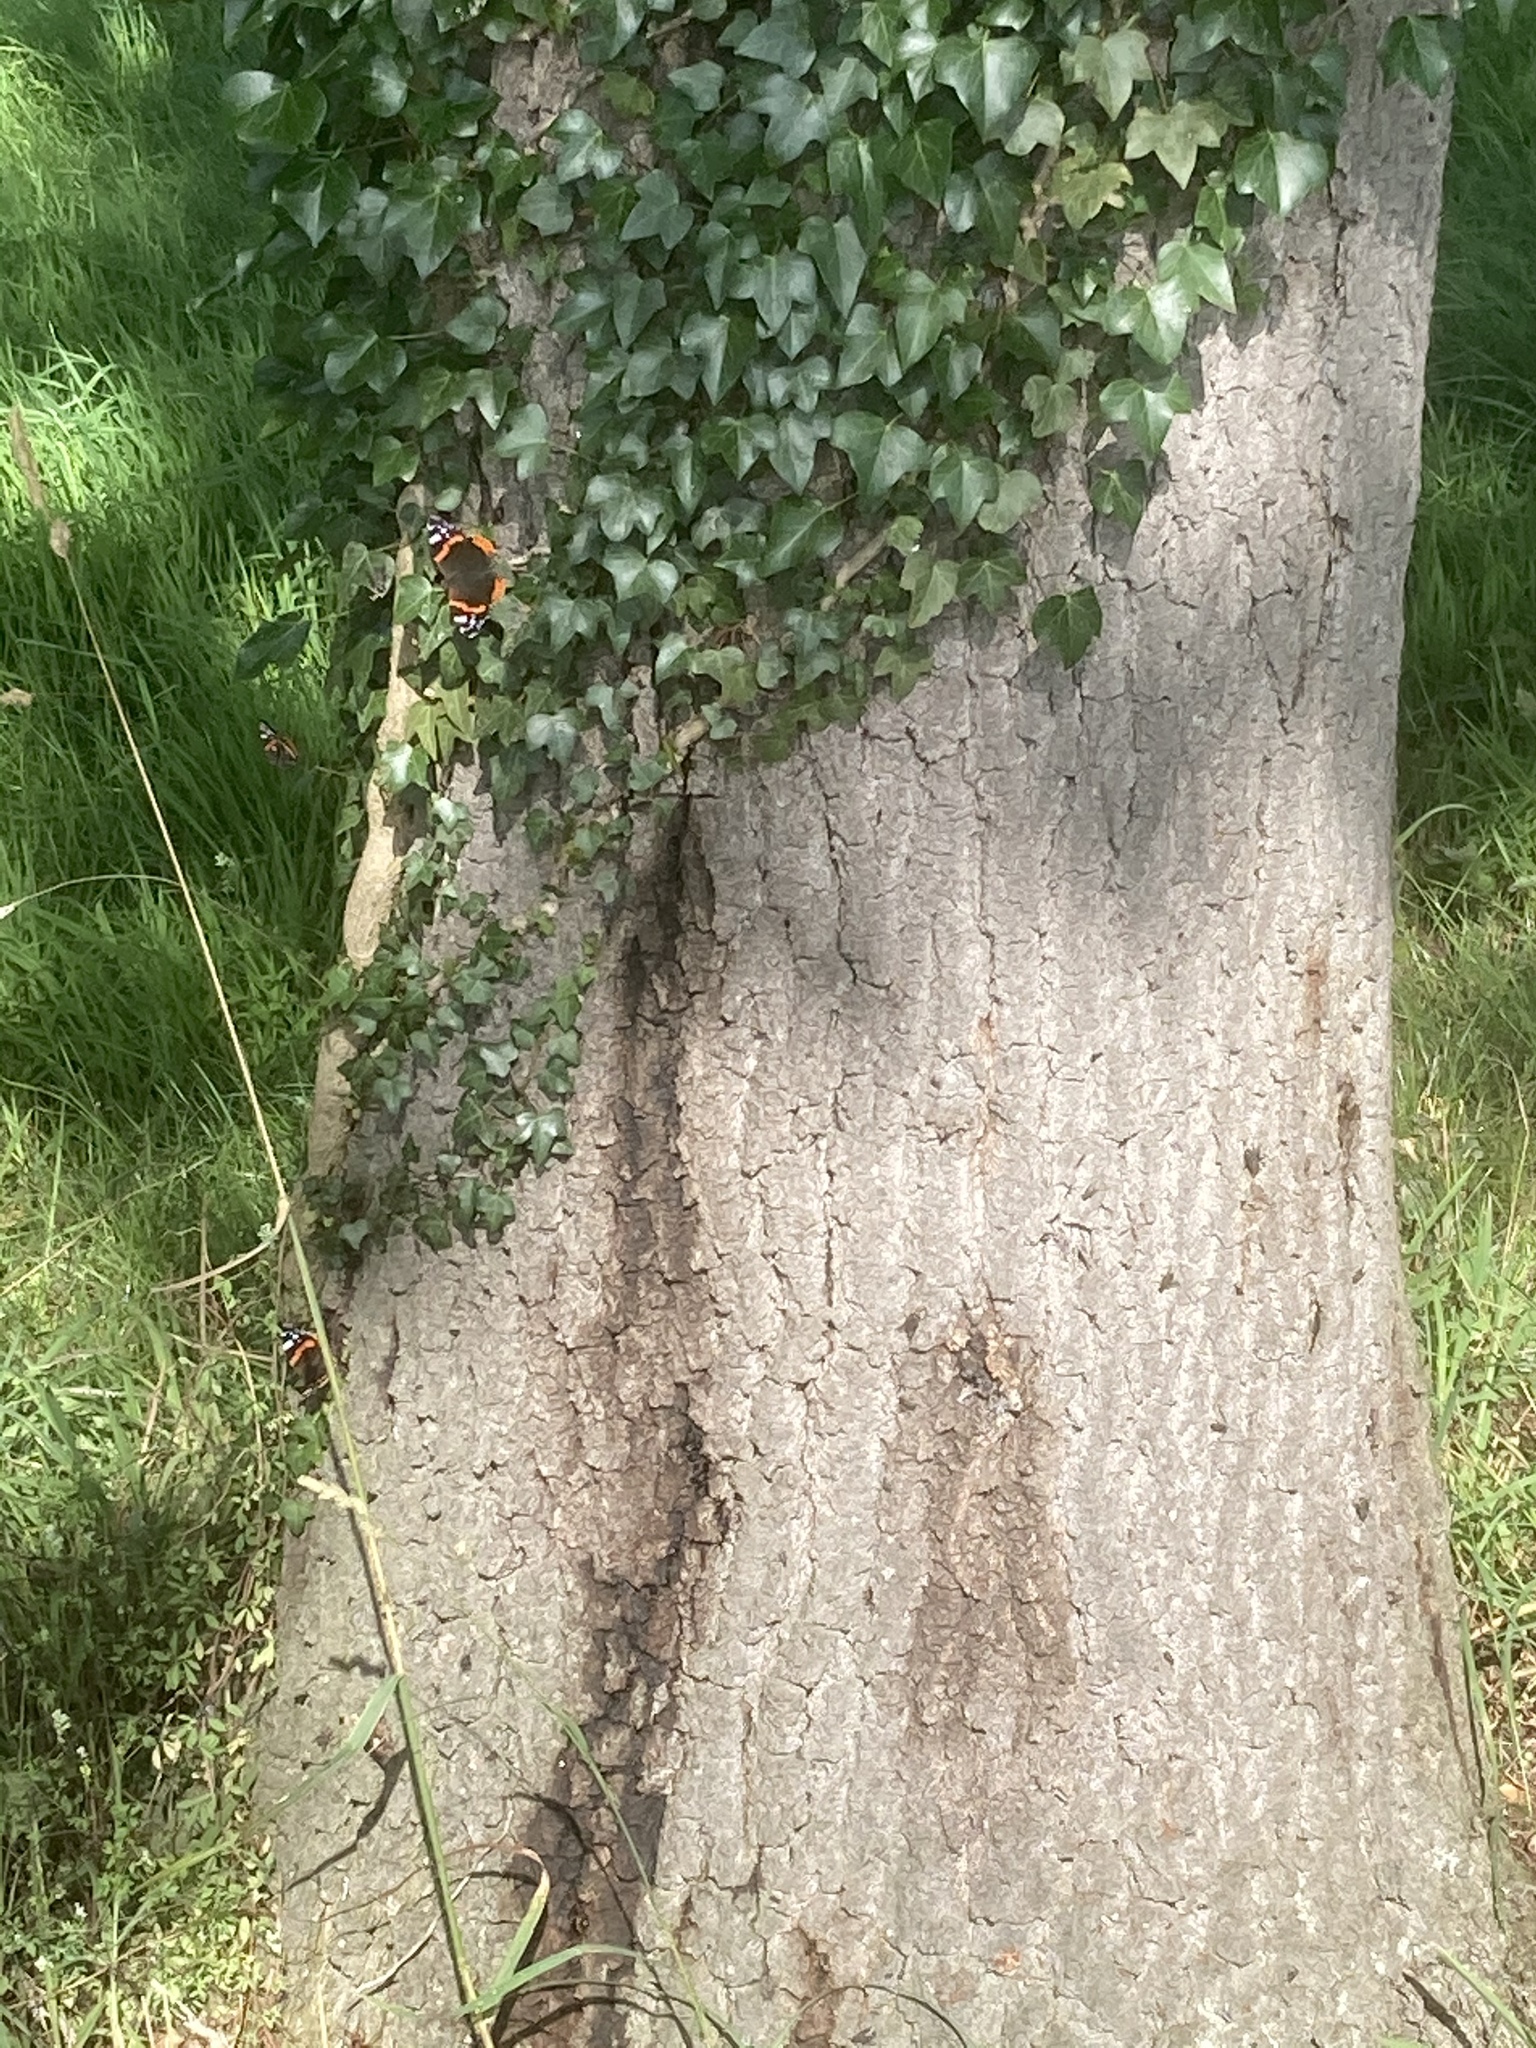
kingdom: Plantae
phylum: Tracheophyta
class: Magnoliopsida
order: Apiales
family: Araliaceae
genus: Hedera
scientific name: Hedera helix
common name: Ivy
